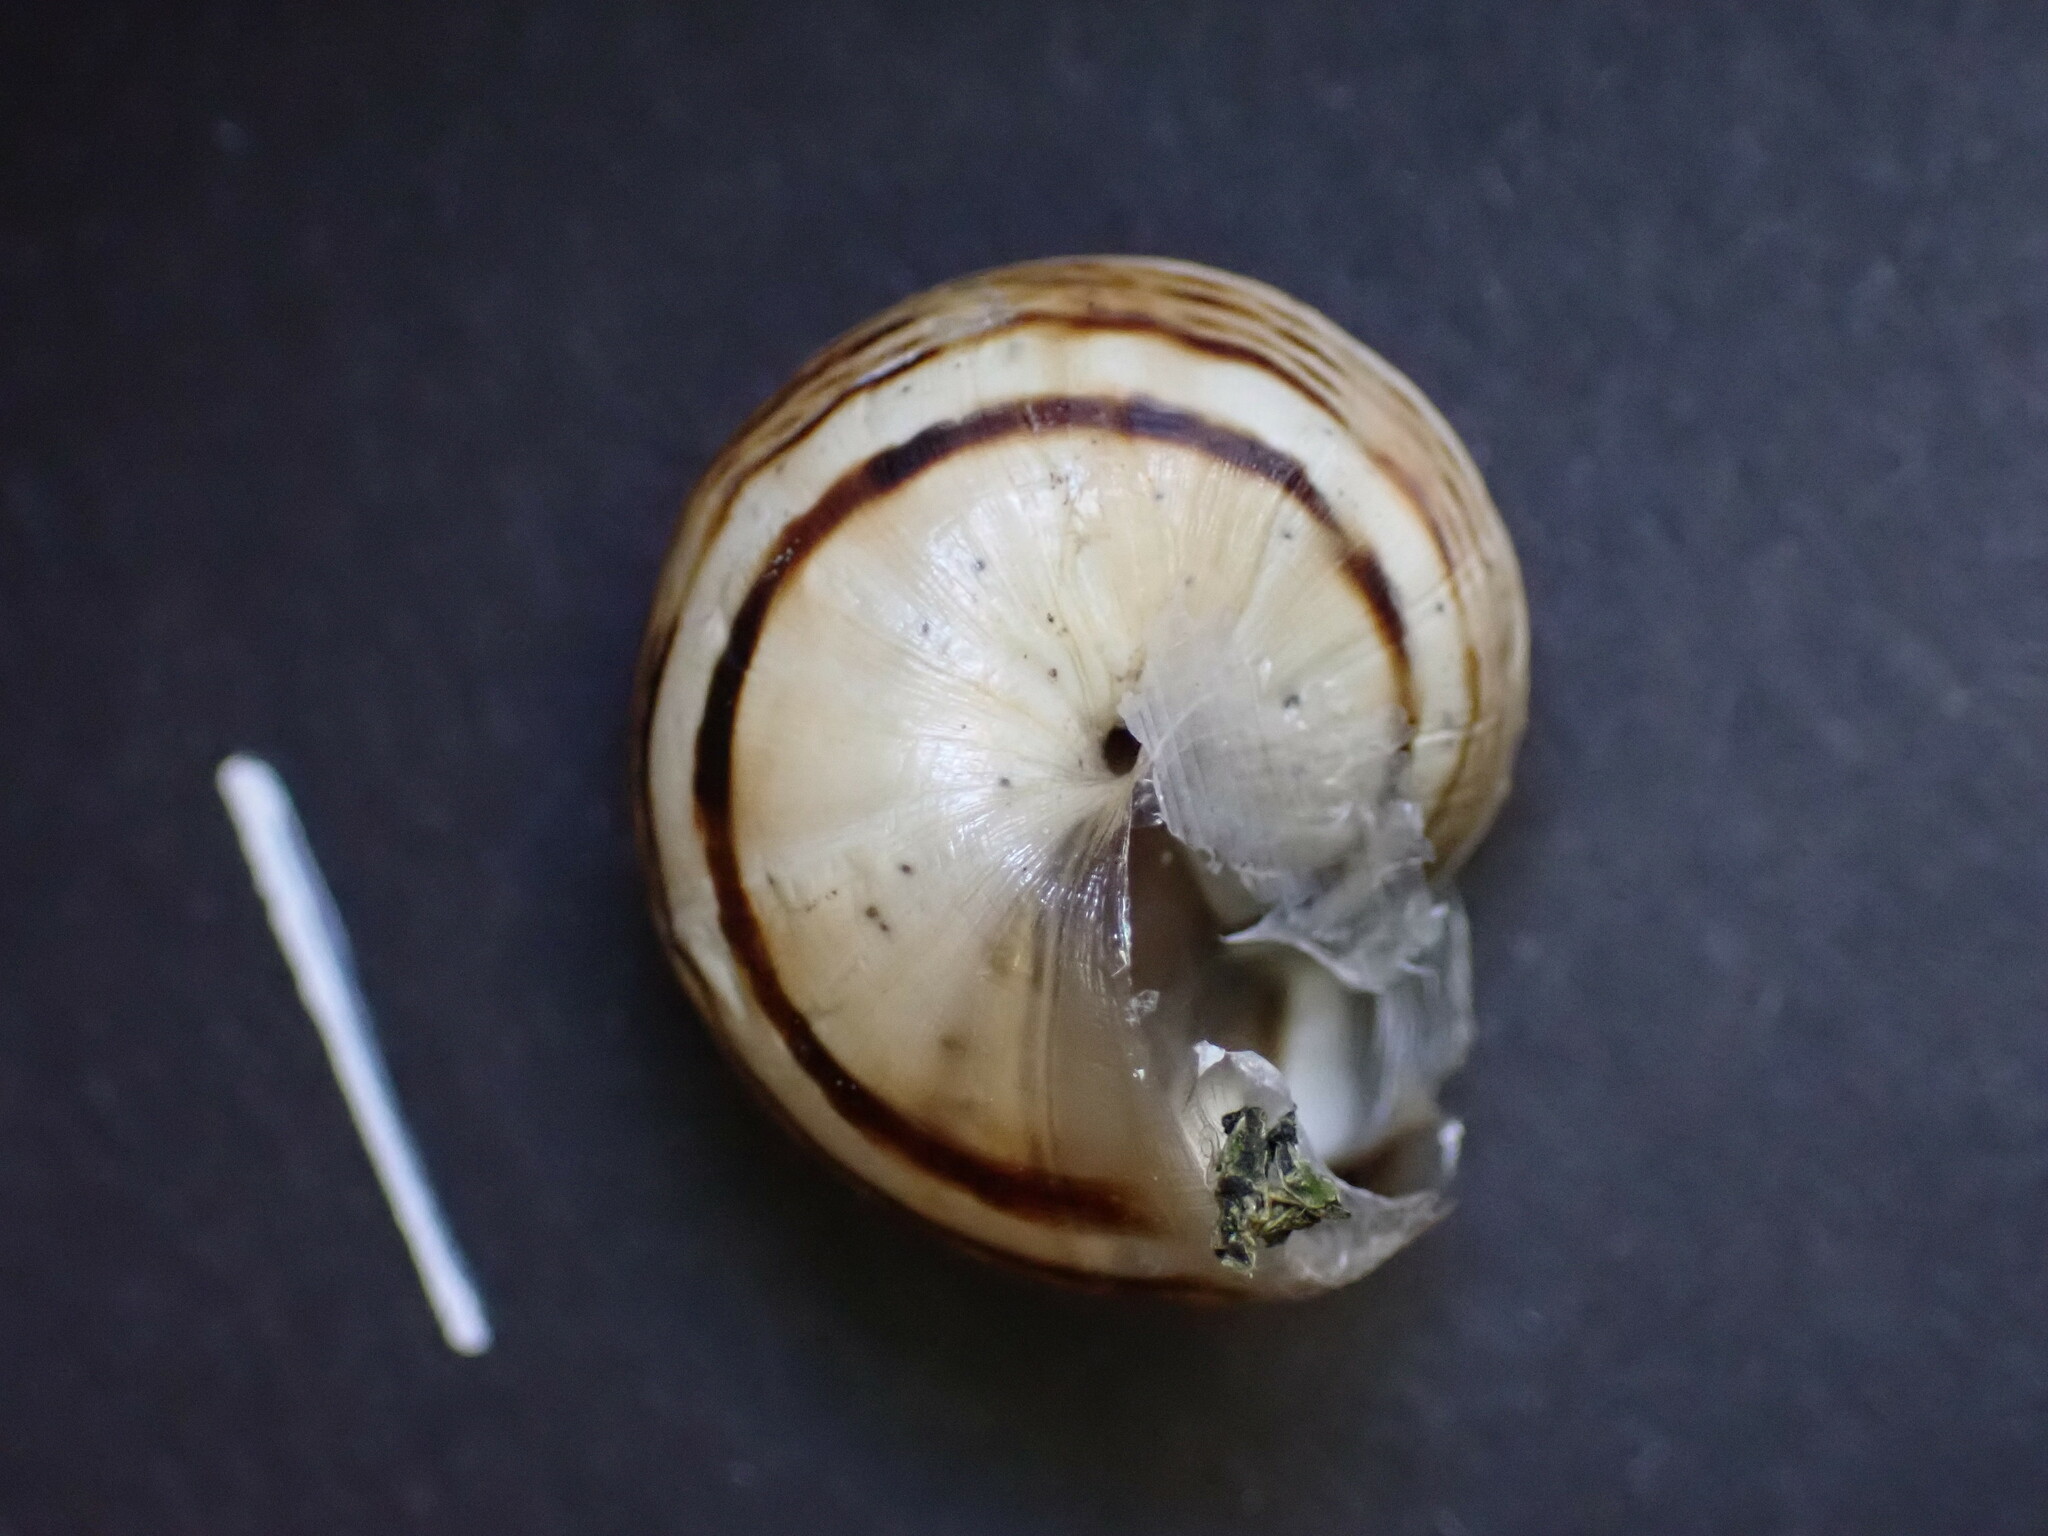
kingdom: Animalia
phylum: Mollusca
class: Gastropoda
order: Stylommatophora
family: Helicidae
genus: Theba
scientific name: Theba pisana
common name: White snail
